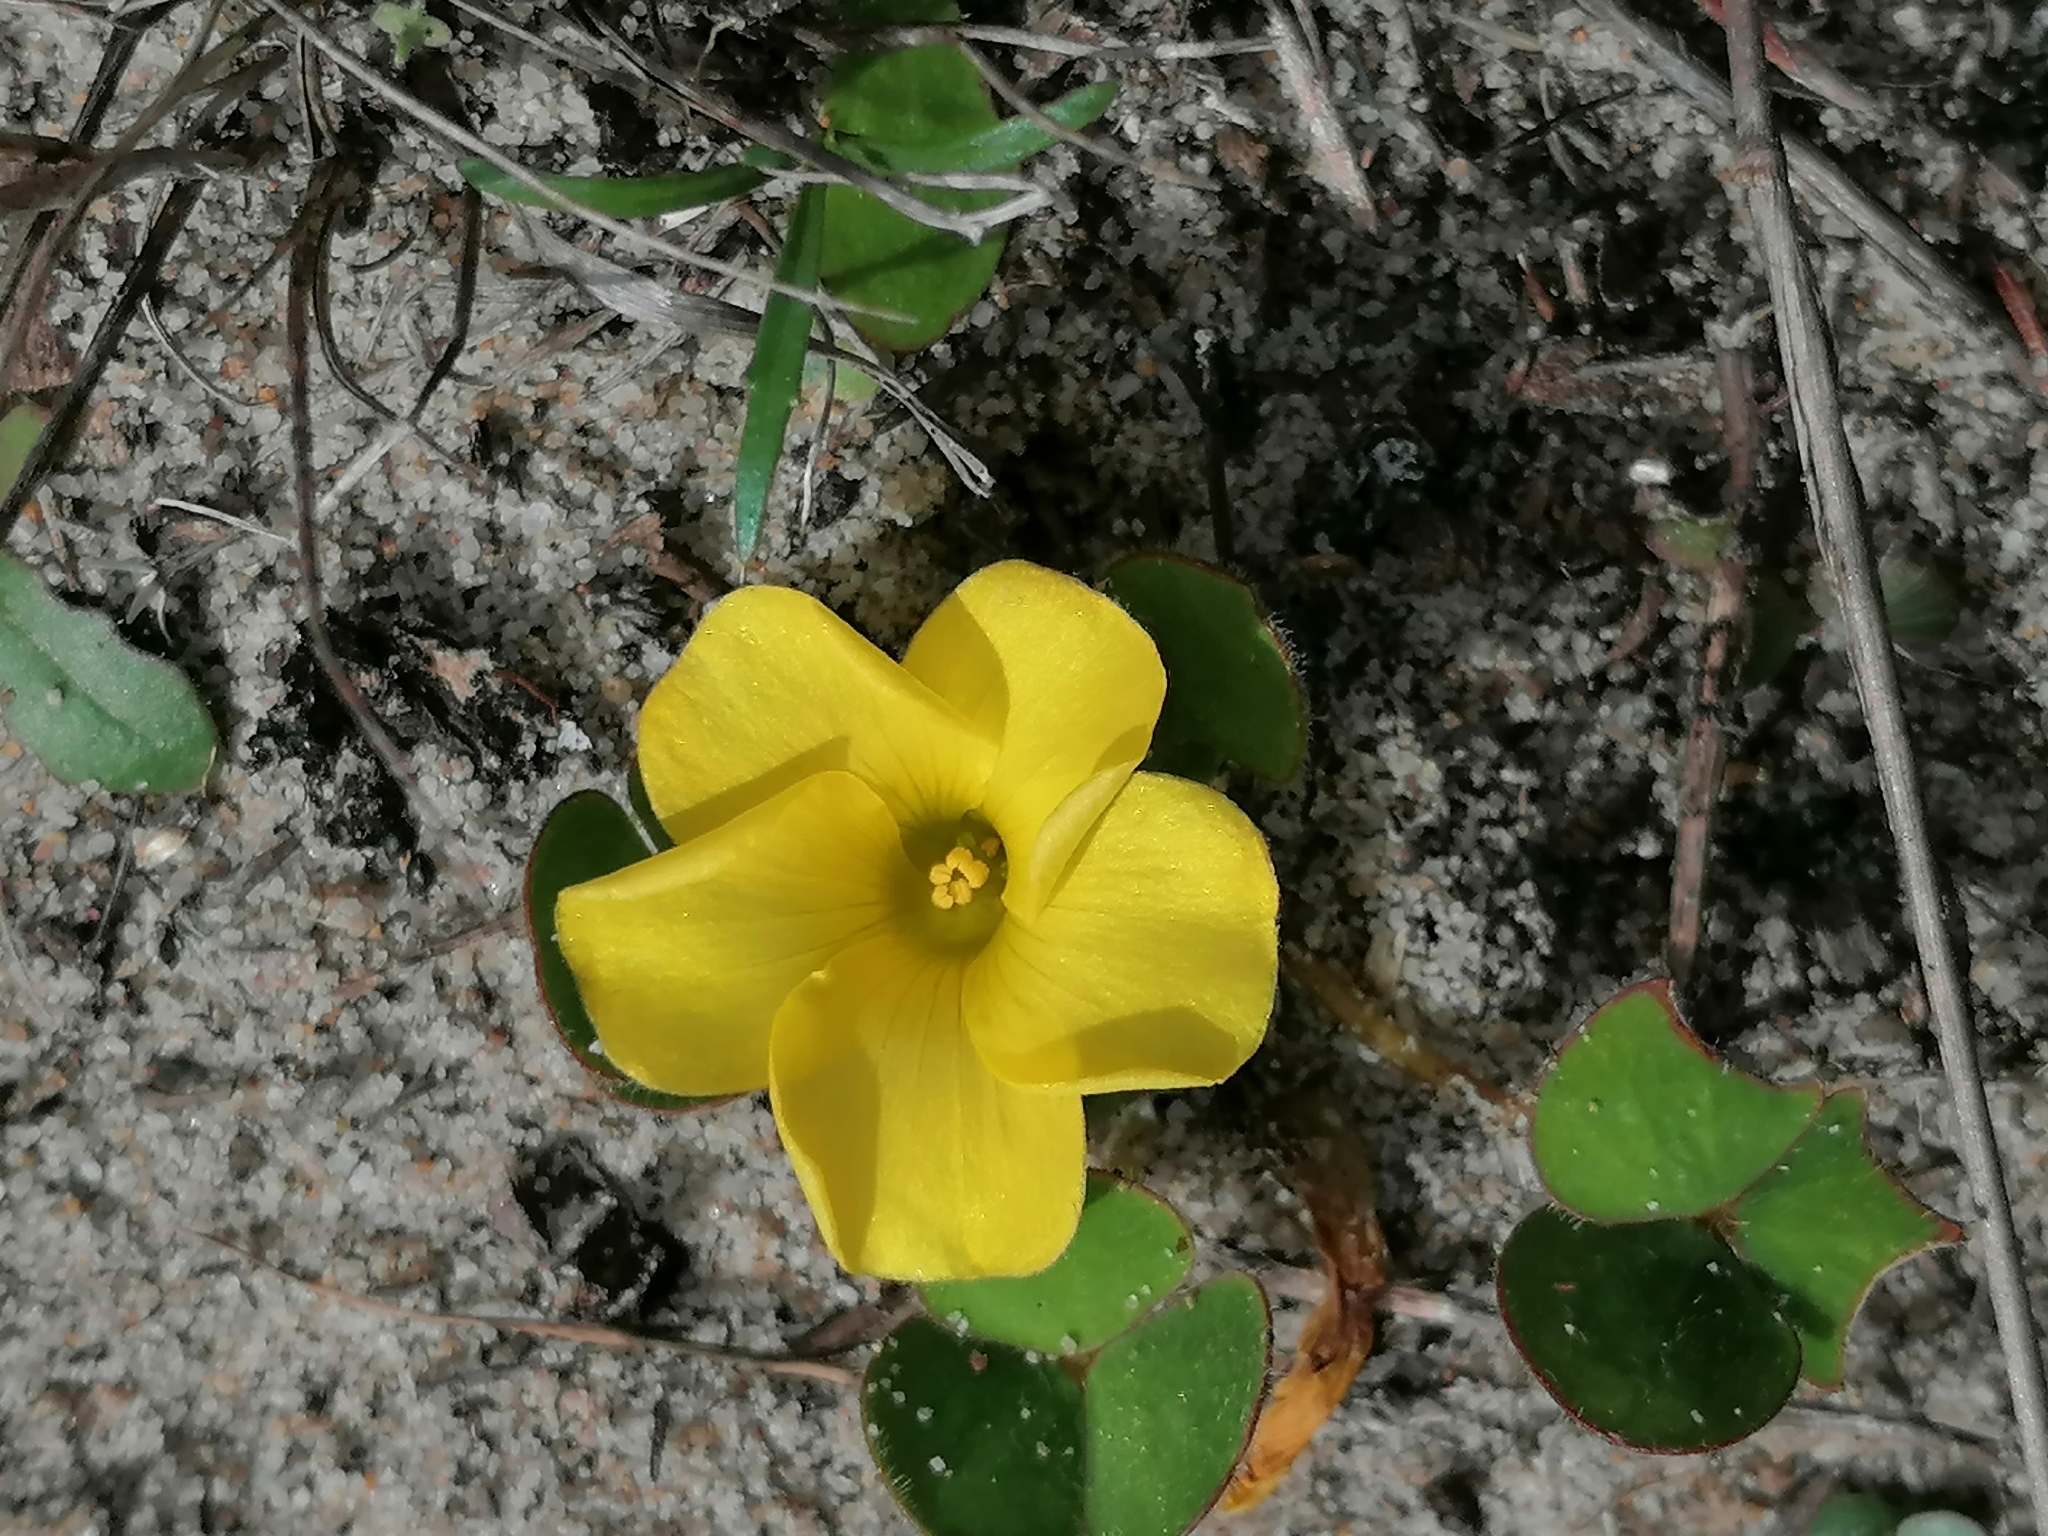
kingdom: Plantae
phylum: Tracheophyta
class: Magnoliopsida
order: Oxalidales
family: Oxalidaceae
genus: Oxalis
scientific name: Oxalis luteola
